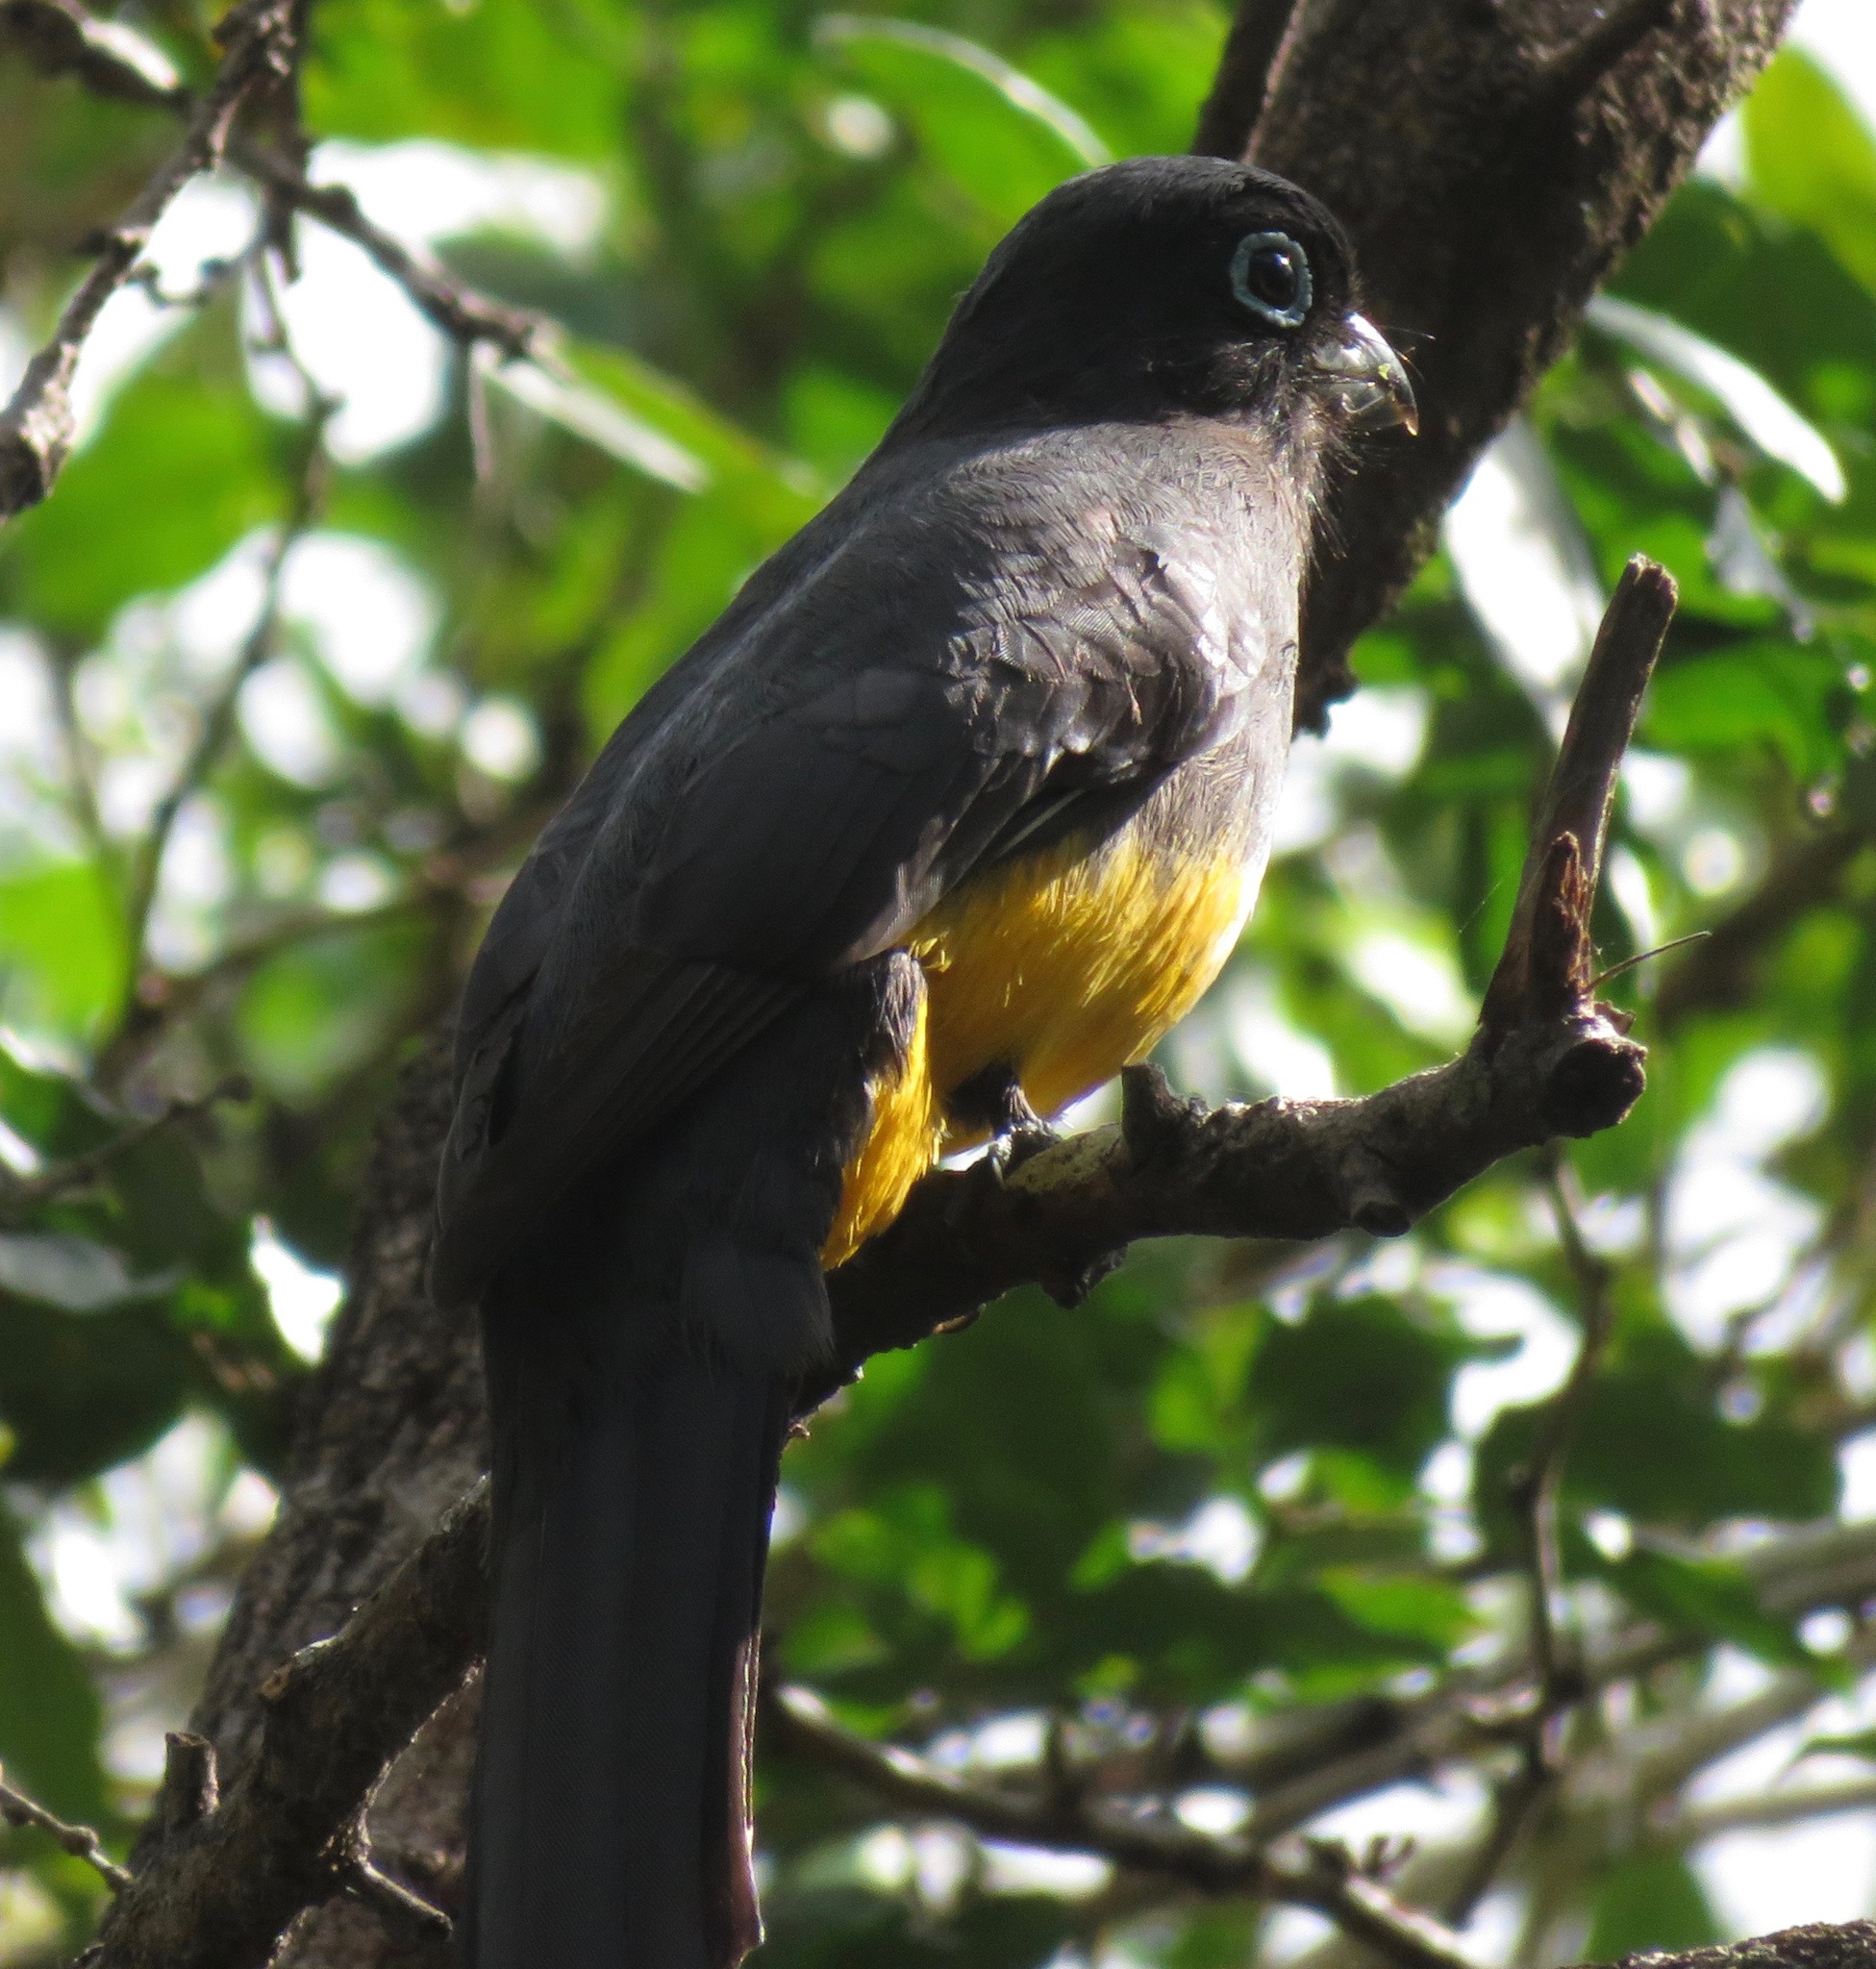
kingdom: Animalia
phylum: Chordata
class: Aves
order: Trogoniformes
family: Trogonidae
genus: Trogon
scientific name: Trogon melanocephalus
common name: Black-headed trogon
